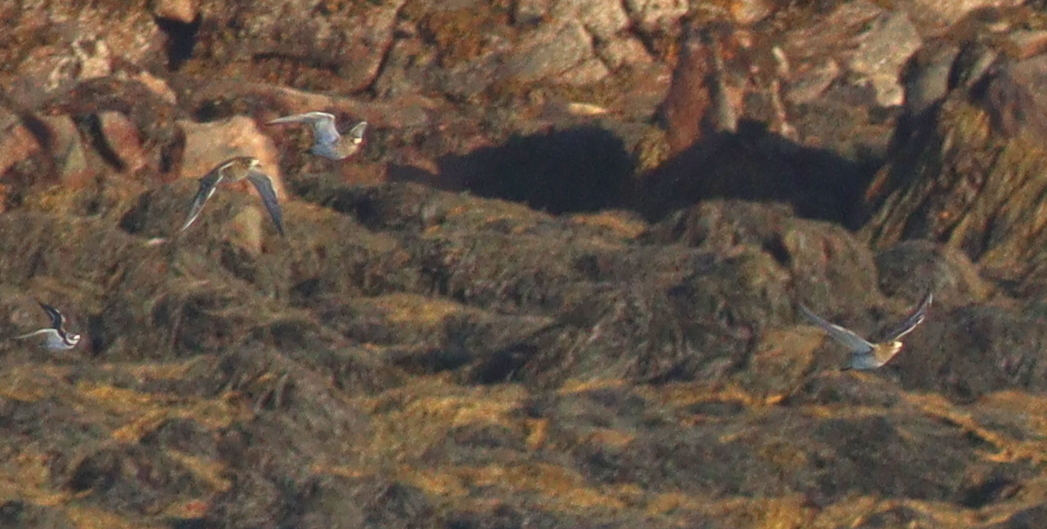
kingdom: Animalia
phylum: Chordata
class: Aves
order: Charadriiformes
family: Charadriidae
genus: Pluvialis
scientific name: Pluvialis apricaria
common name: European golden plover
